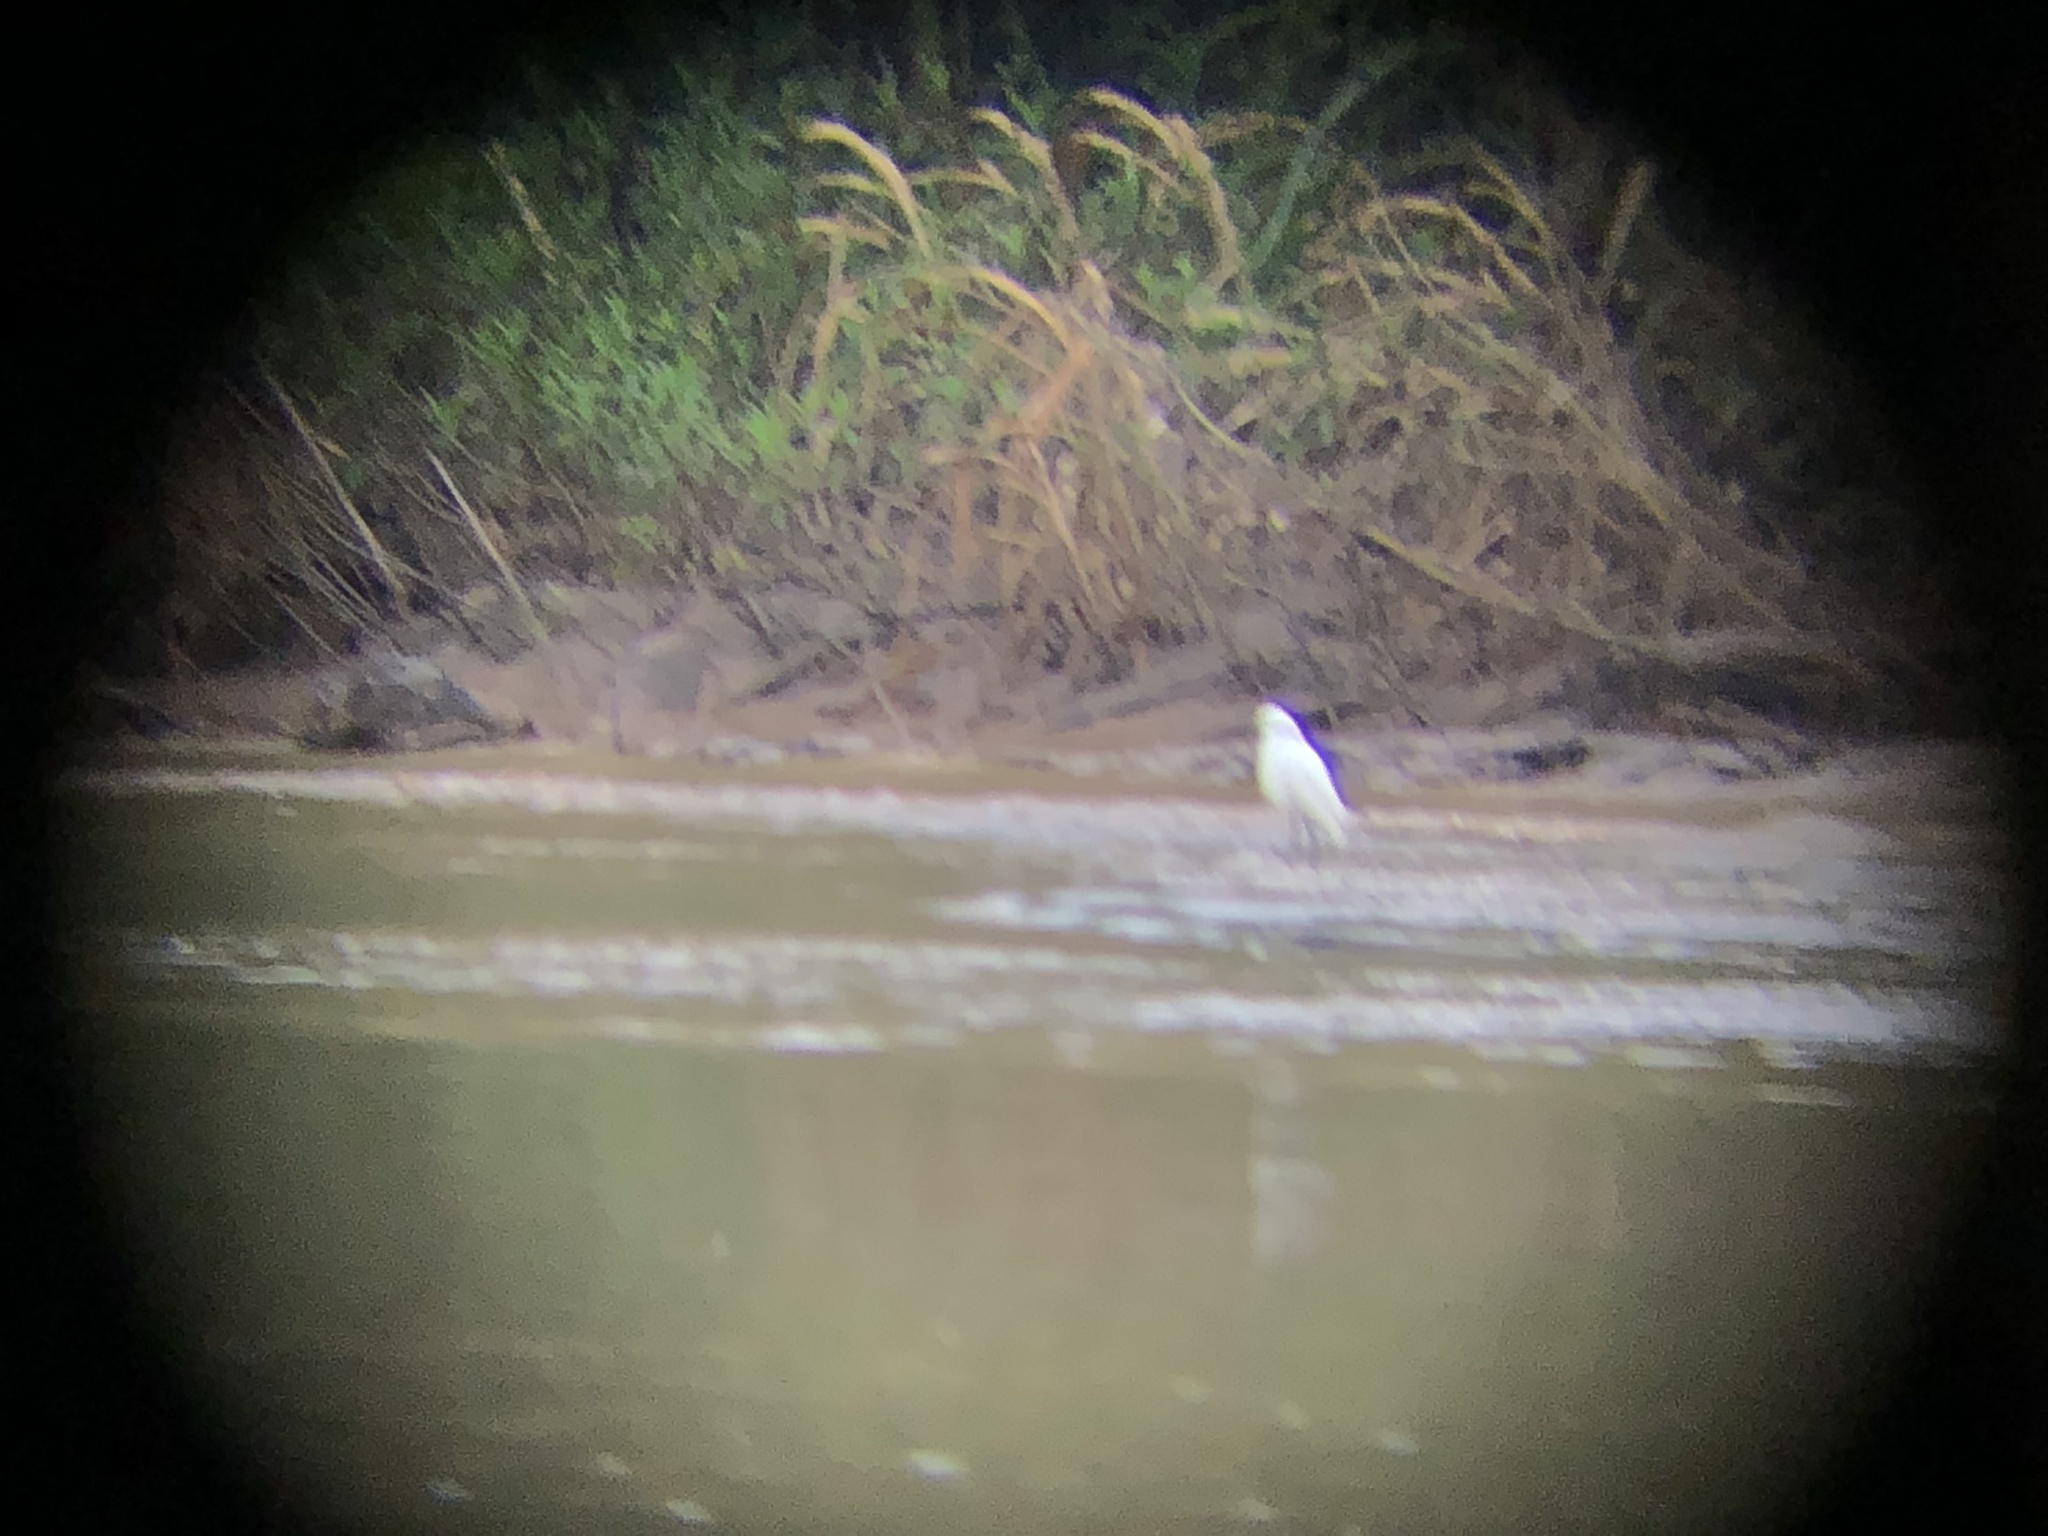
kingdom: Animalia
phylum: Chordata
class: Aves
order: Pelecaniformes
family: Ardeidae
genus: Egretta
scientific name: Egretta thula
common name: Snowy egret
